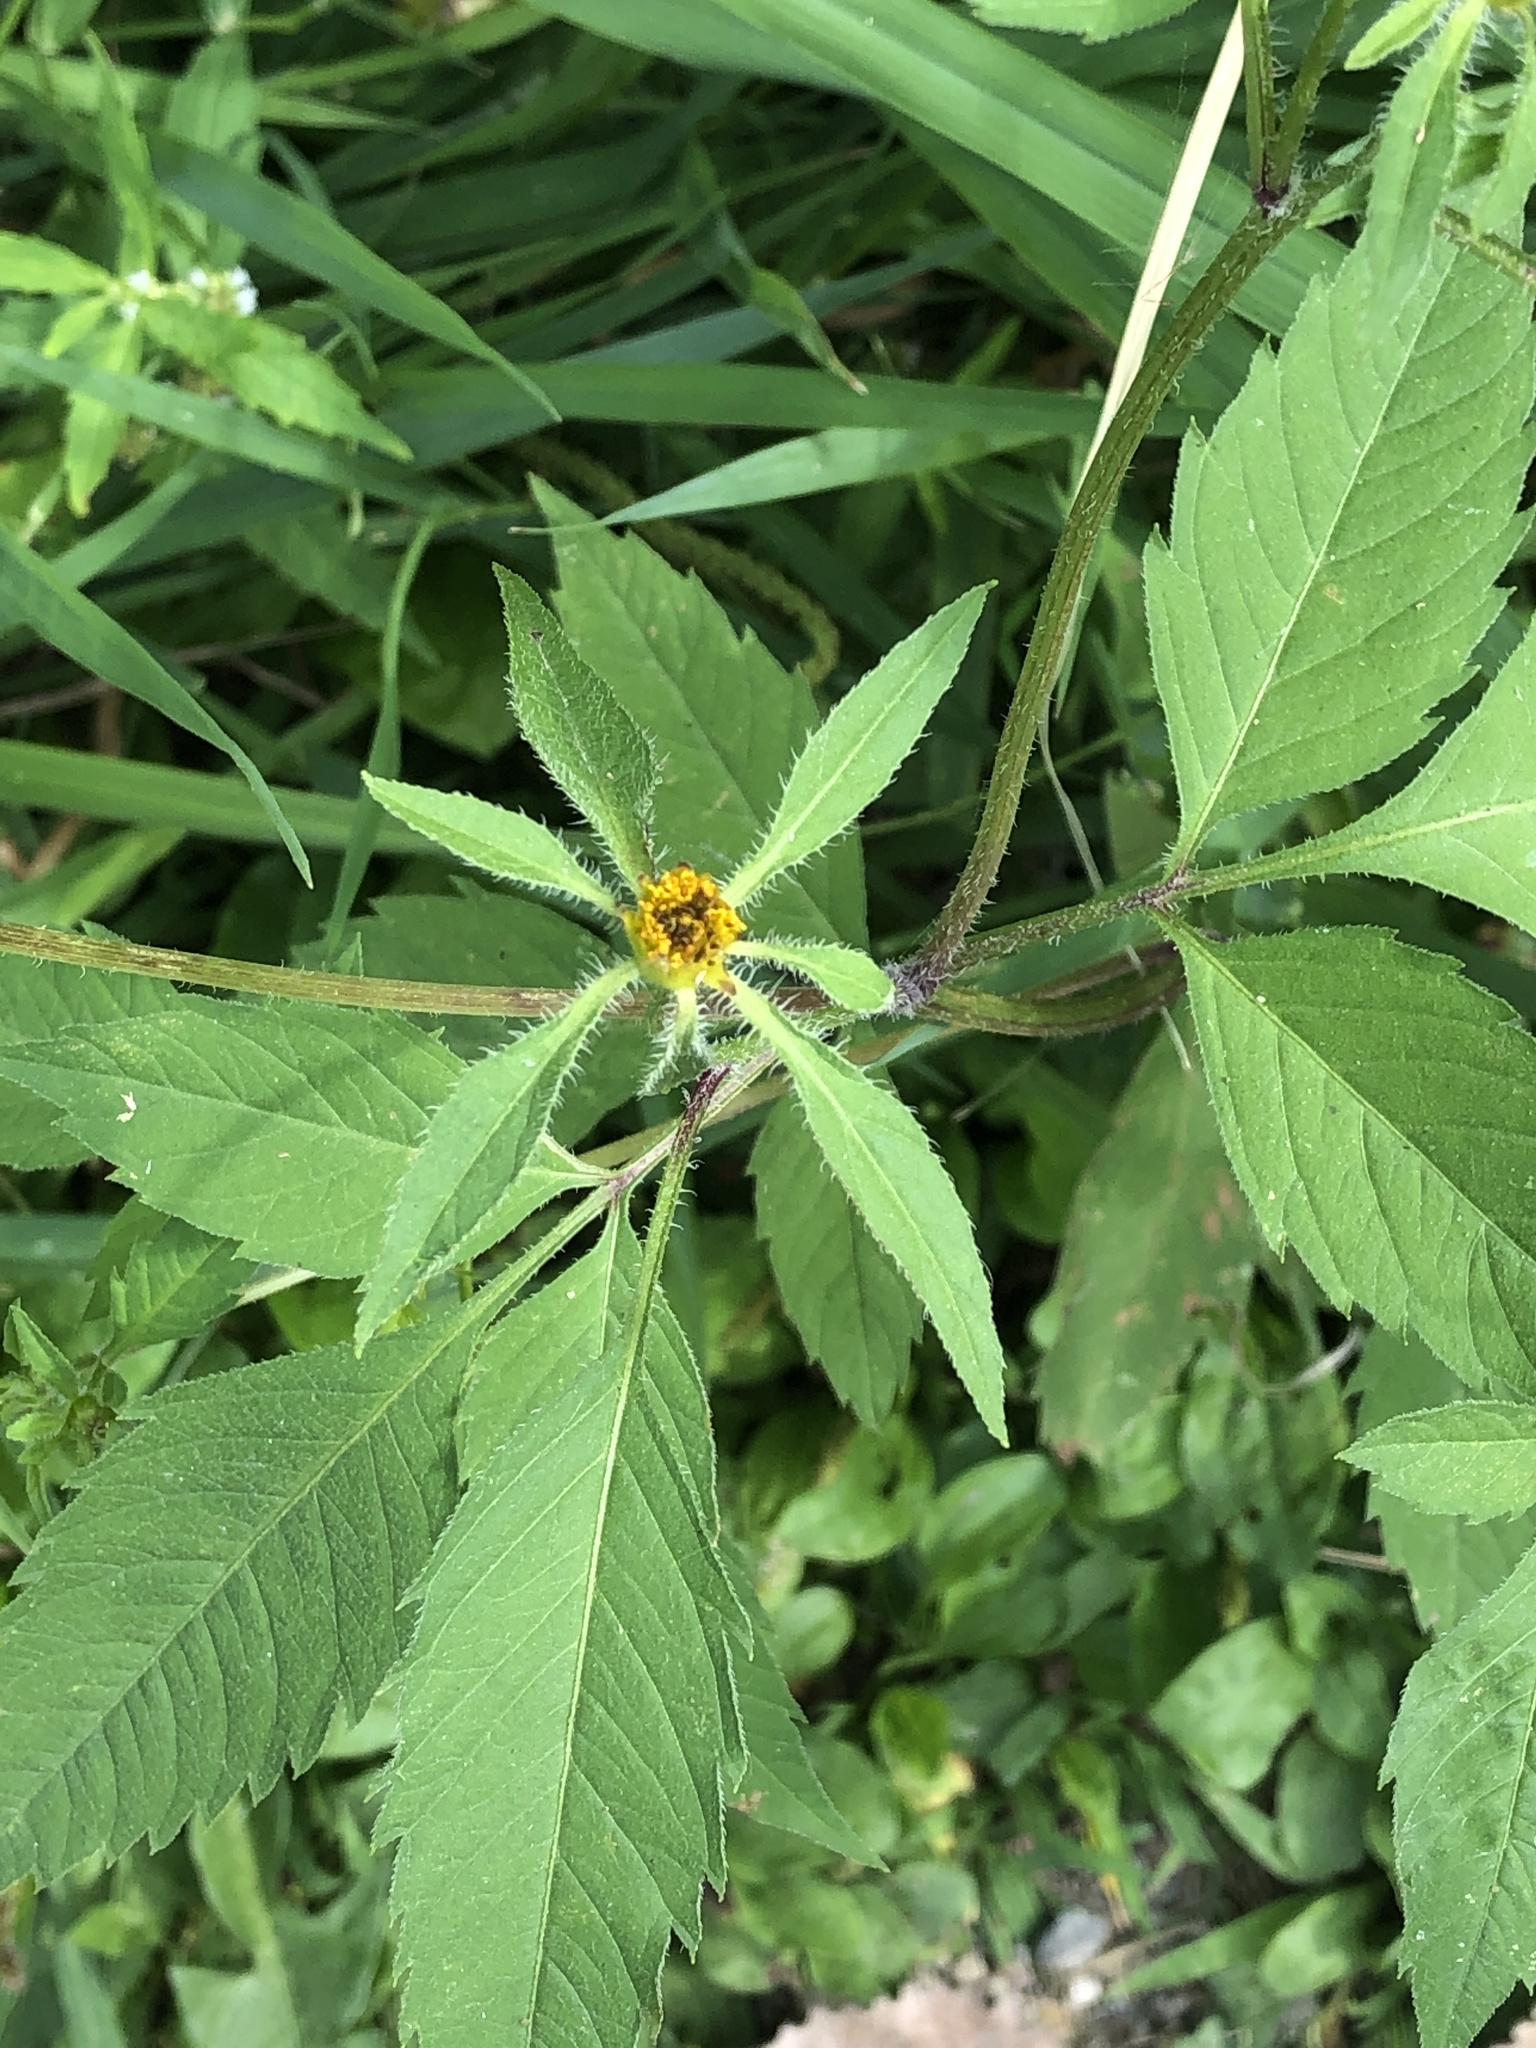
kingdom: Plantae
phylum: Tracheophyta
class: Magnoliopsida
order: Asterales
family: Asteraceae
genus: Bidens
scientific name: Bidens frondosa
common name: Beggarticks
